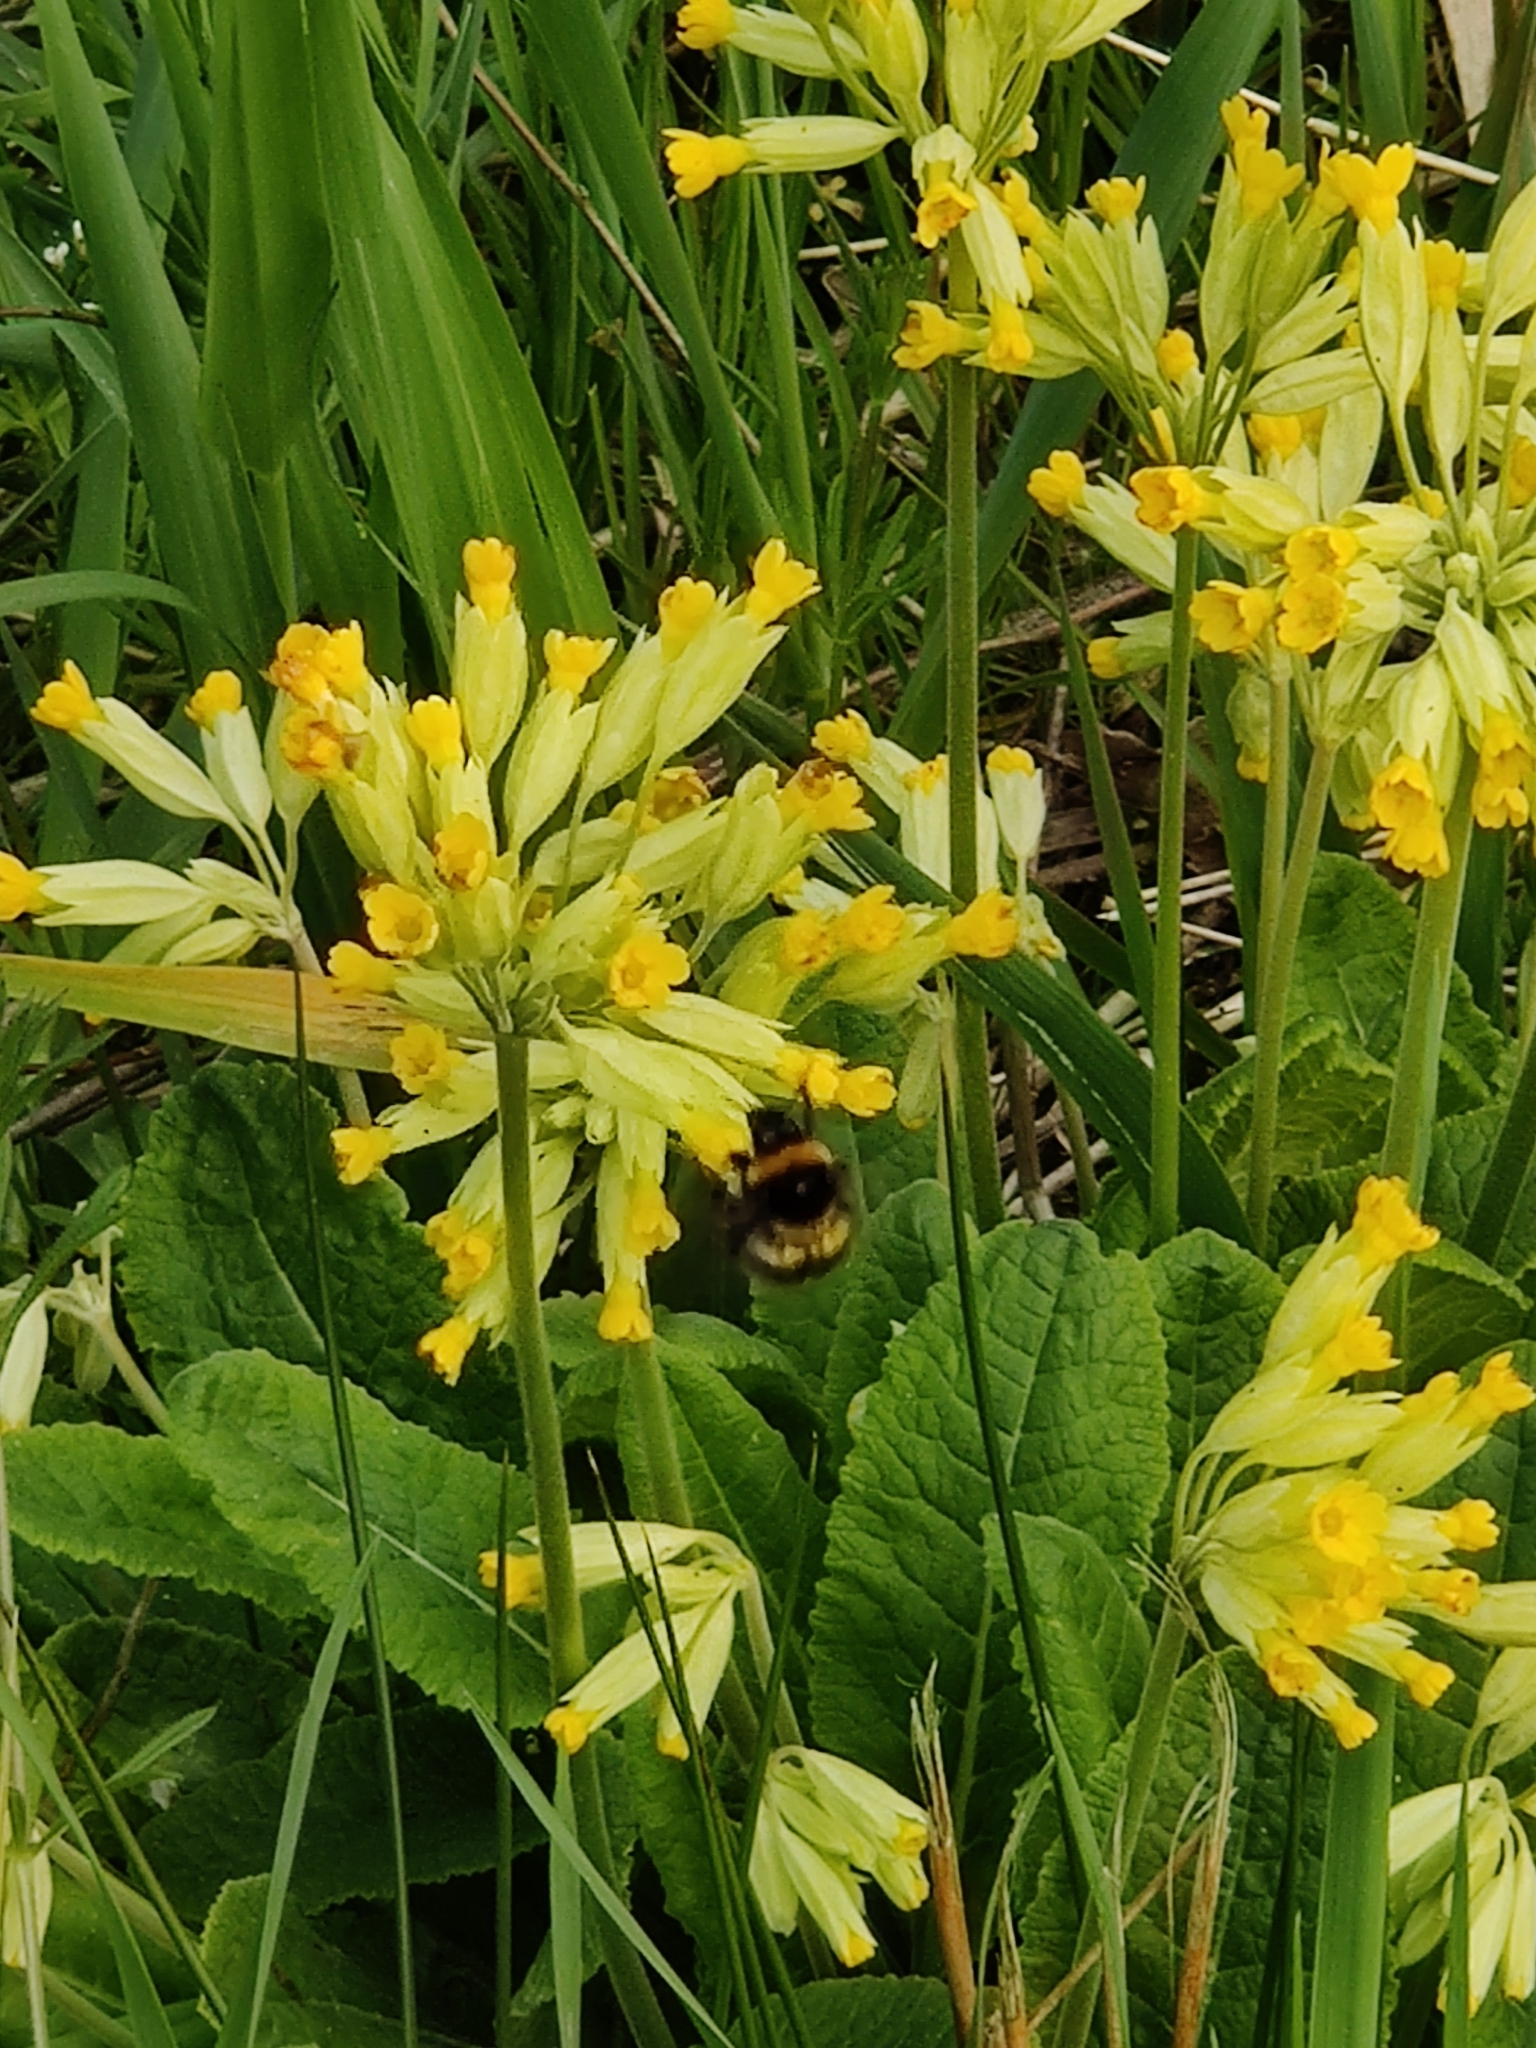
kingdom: Plantae
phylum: Tracheophyta
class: Magnoliopsida
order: Ericales
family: Primulaceae
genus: Primula
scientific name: Primula veris
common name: Cowslip
